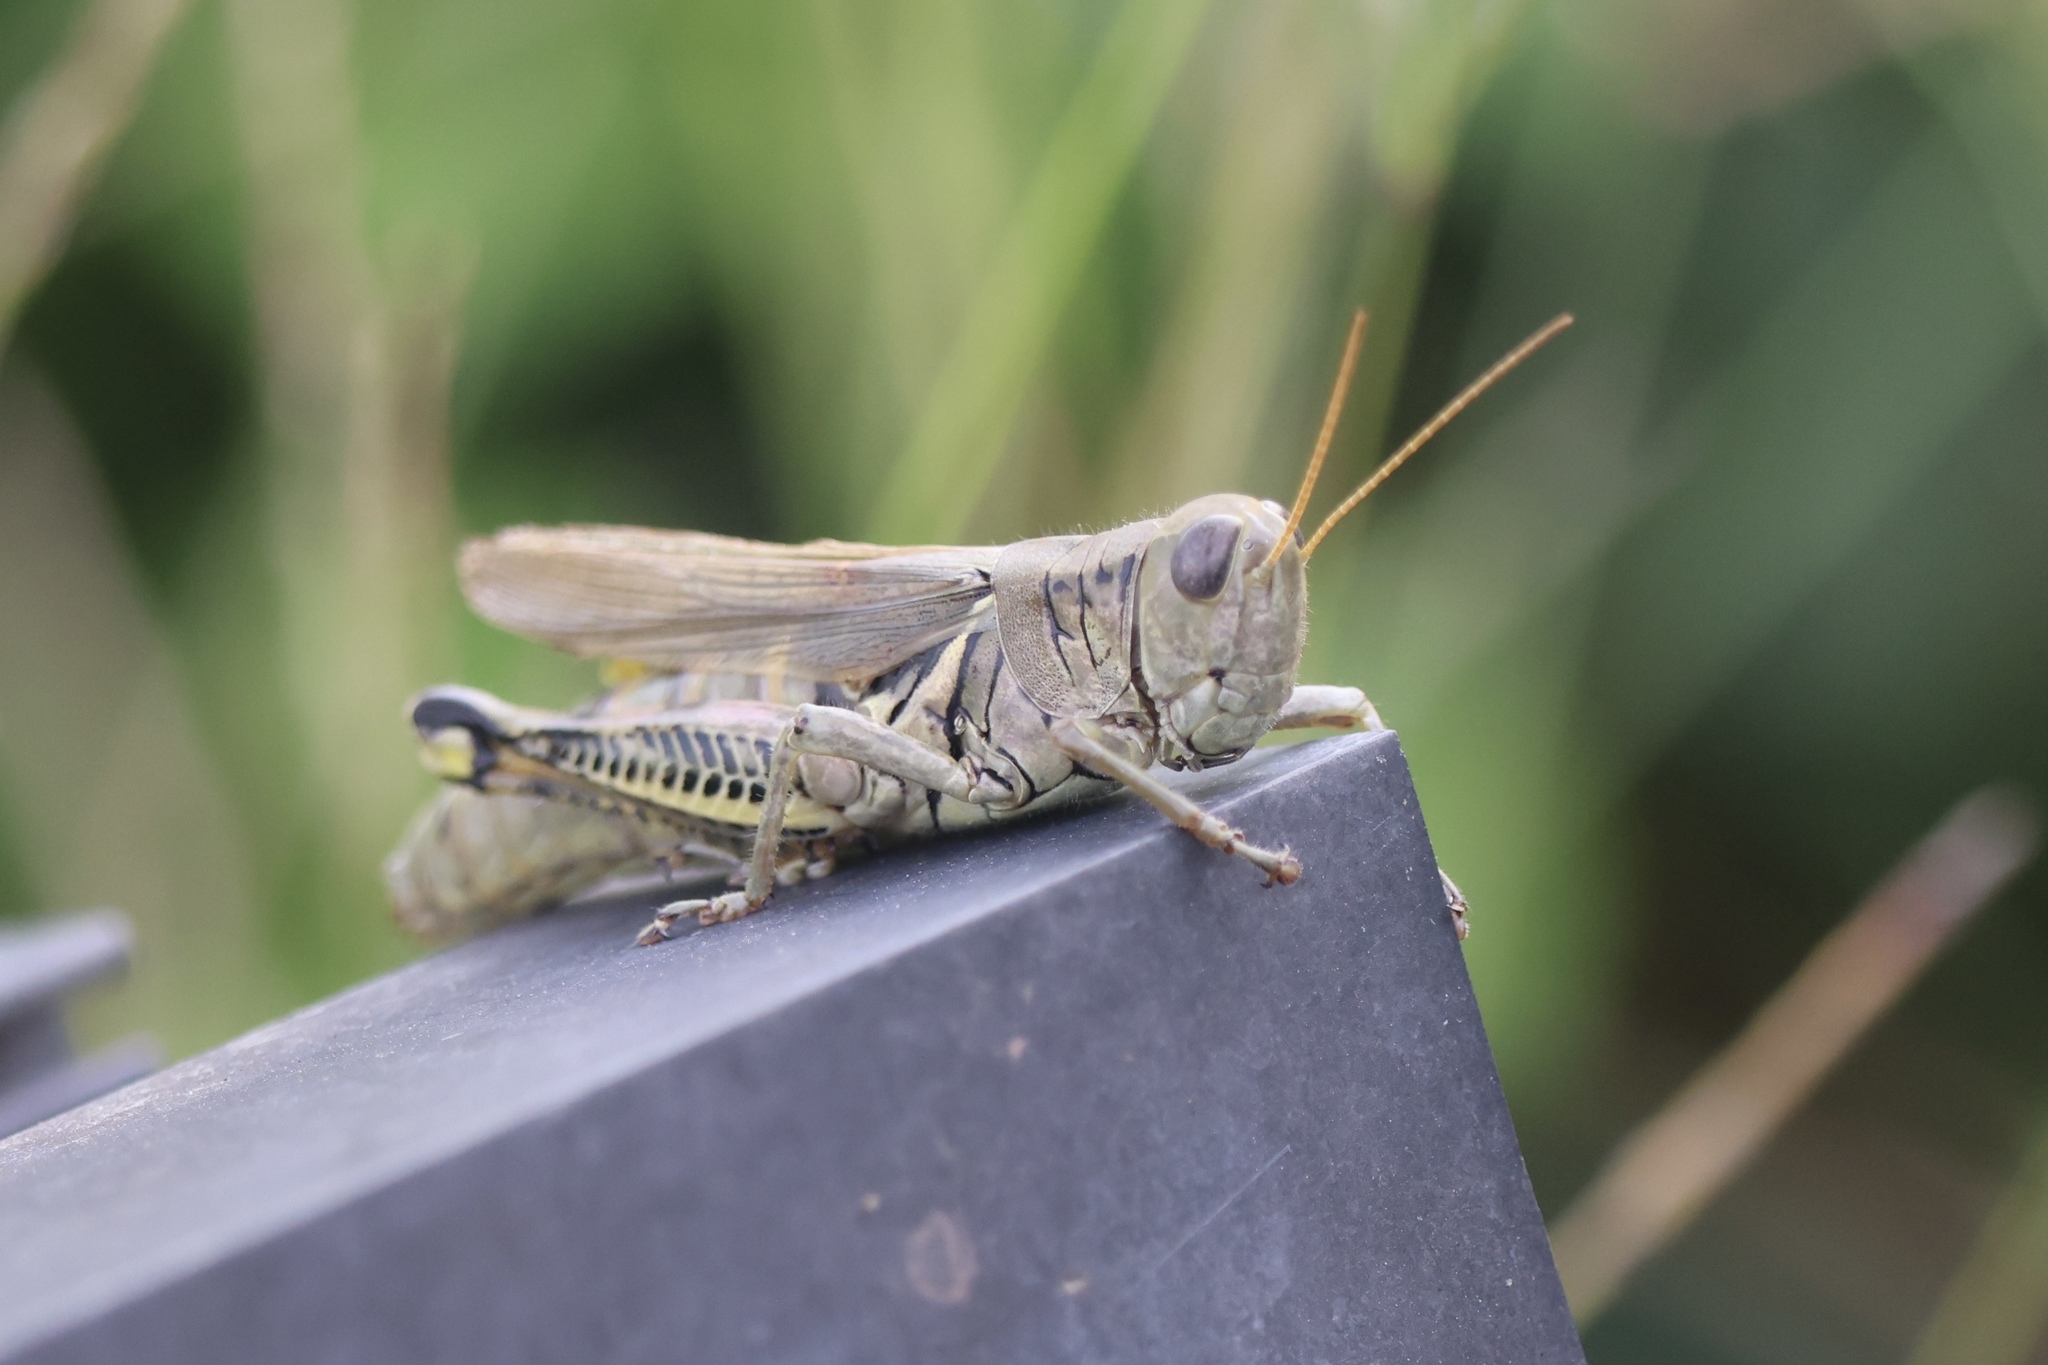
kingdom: Animalia
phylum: Arthropoda
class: Insecta
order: Orthoptera
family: Acrididae
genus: Melanoplus
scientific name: Melanoplus differentialis
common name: Differential grasshopper
